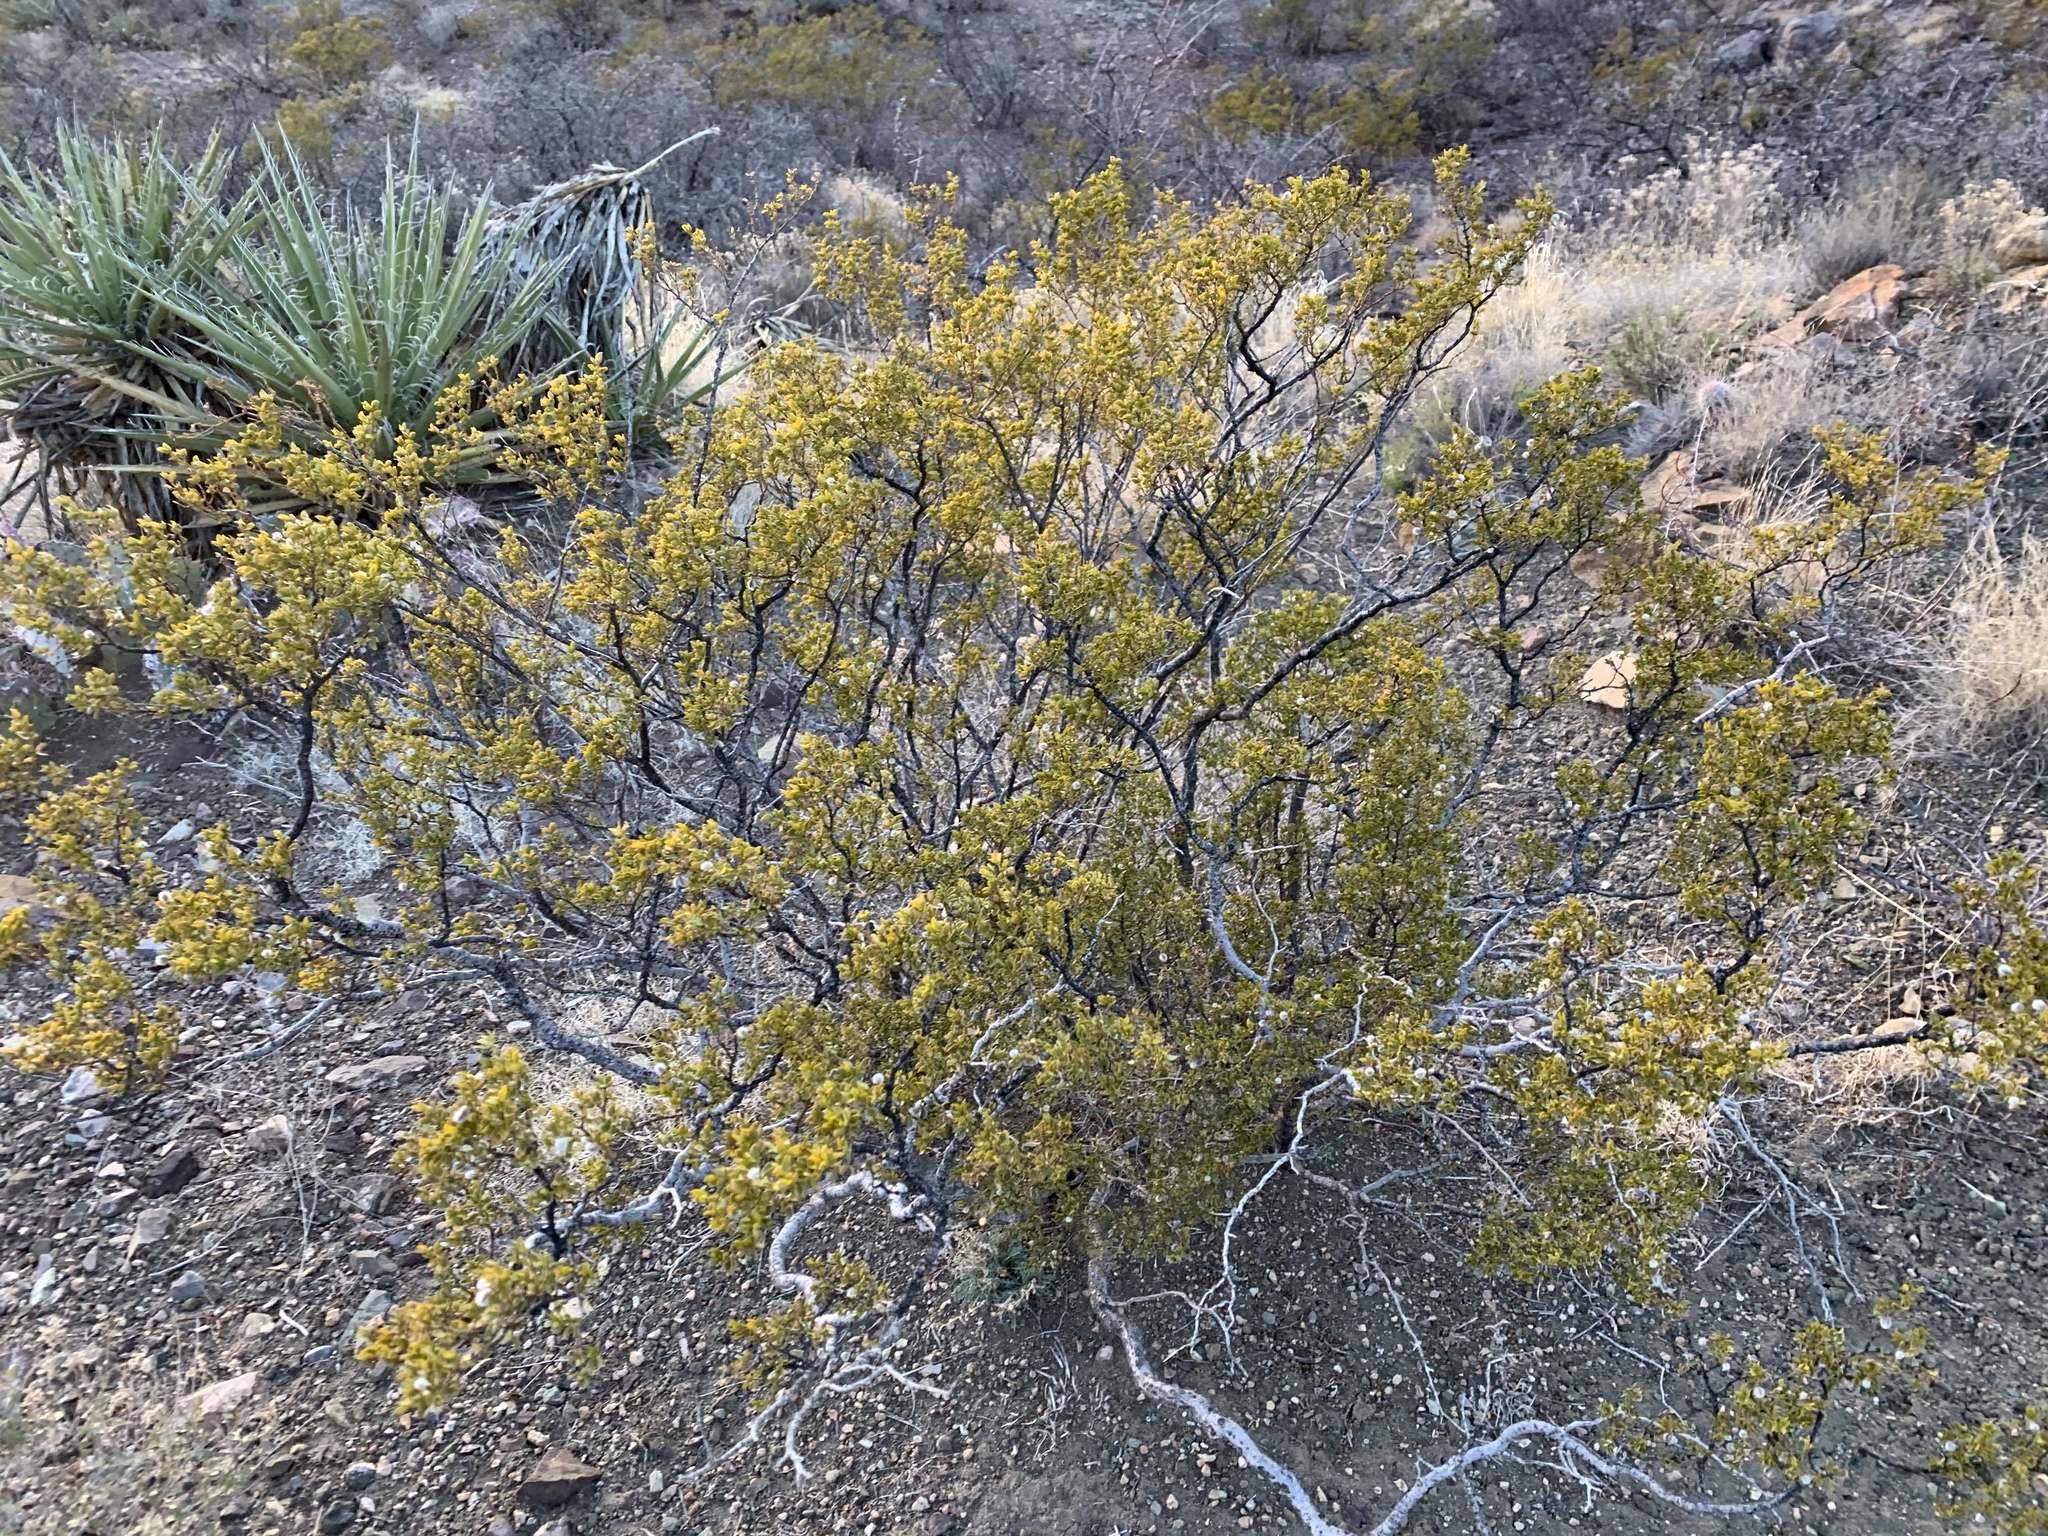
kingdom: Plantae
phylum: Tracheophyta
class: Magnoliopsida
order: Zygophyllales
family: Zygophyllaceae
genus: Larrea
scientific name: Larrea tridentata
